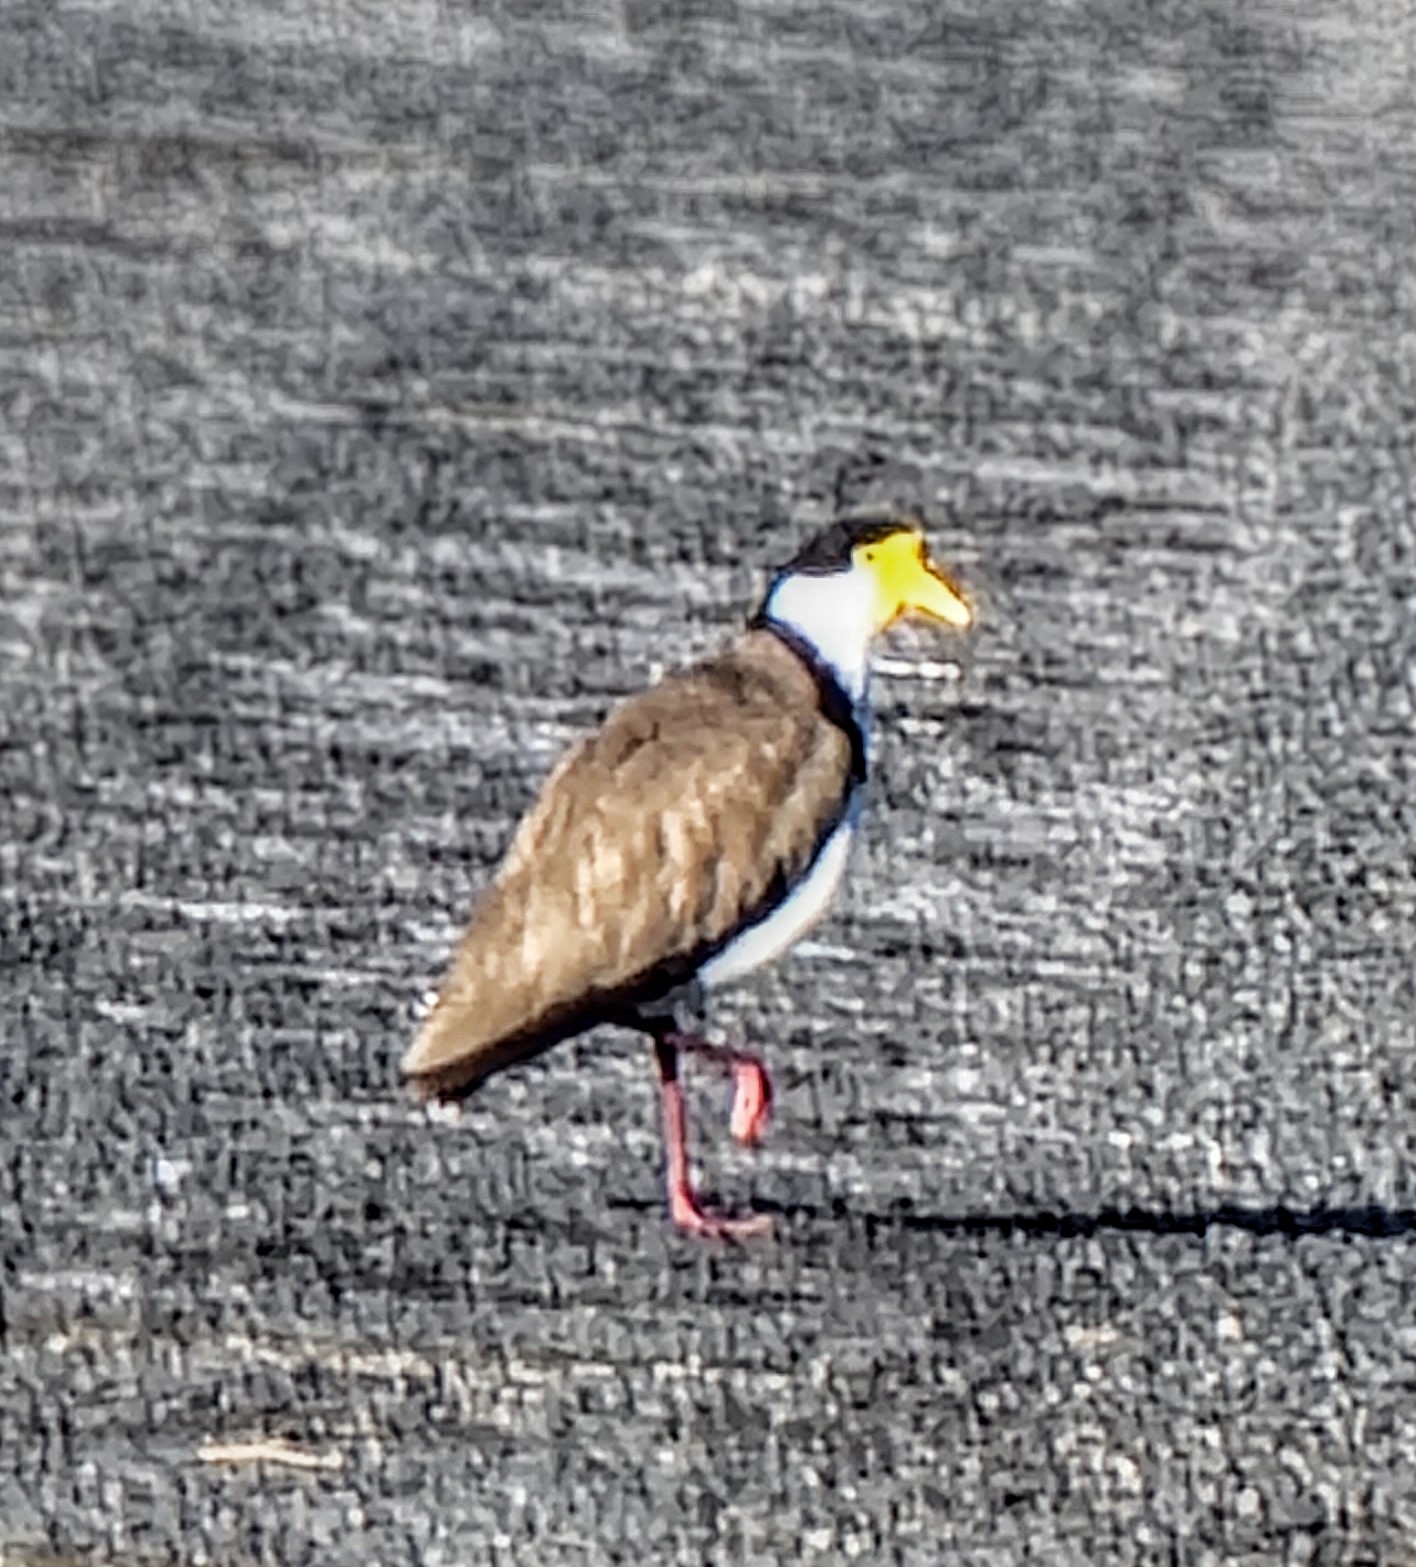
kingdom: Animalia
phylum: Chordata
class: Aves
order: Charadriiformes
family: Charadriidae
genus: Vanellus
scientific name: Vanellus miles
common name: Masked lapwing
